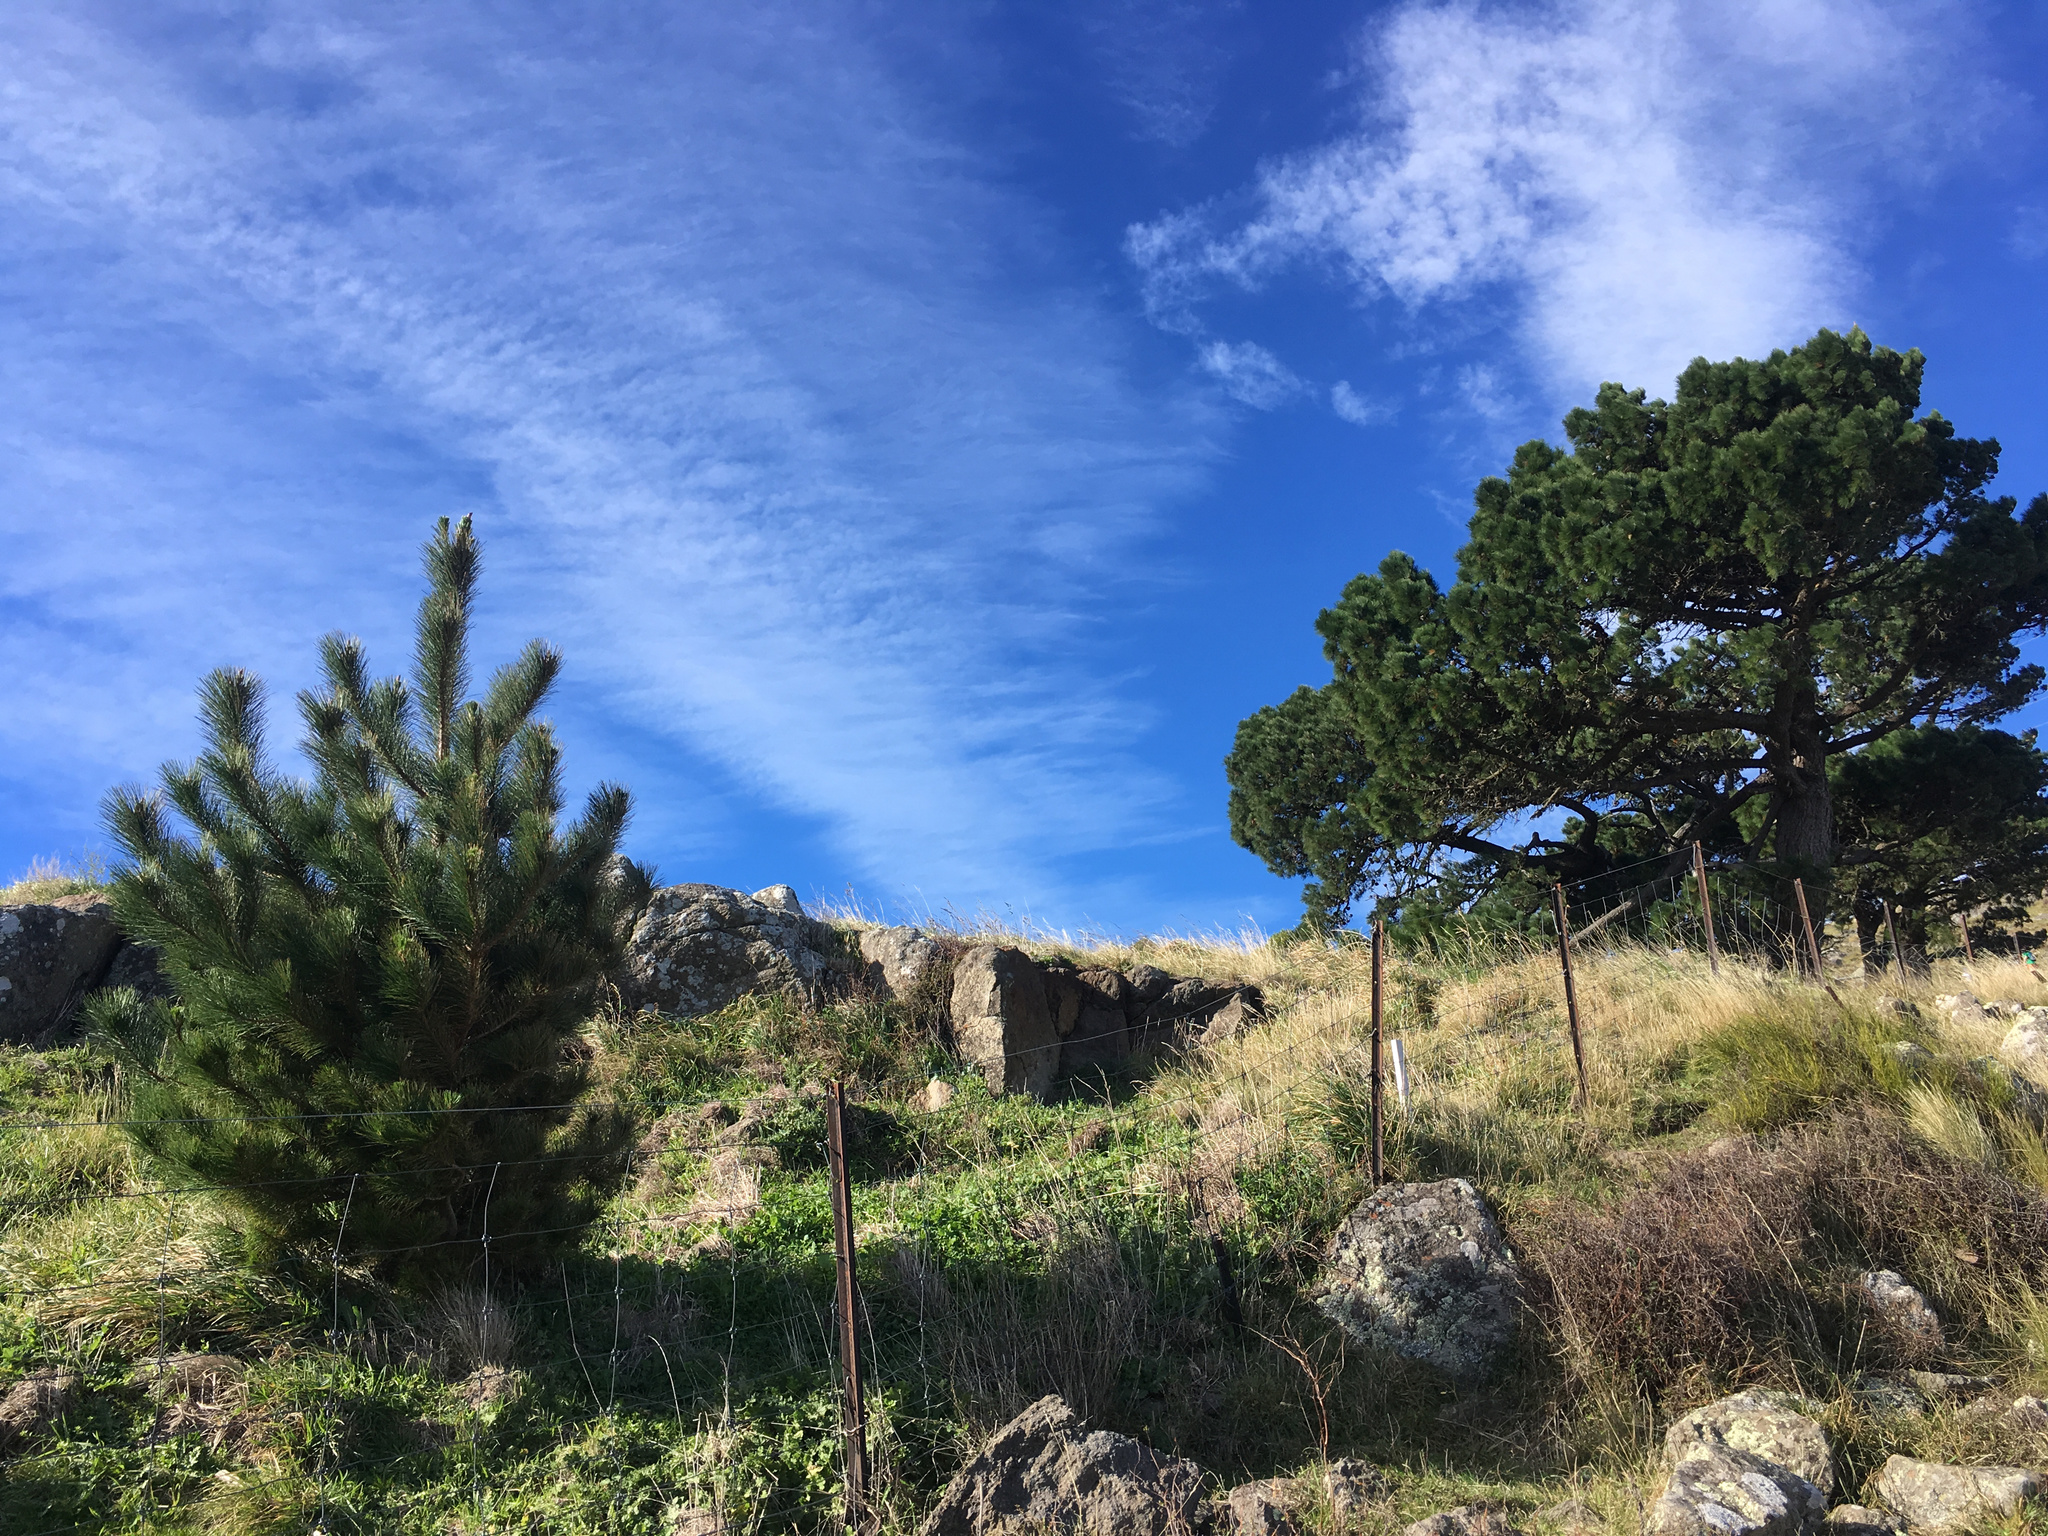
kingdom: Plantae
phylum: Tracheophyta
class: Pinopsida
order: Pinales
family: Pinaceae
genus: Pinus
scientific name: Pinus radiata
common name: Monterey pine
